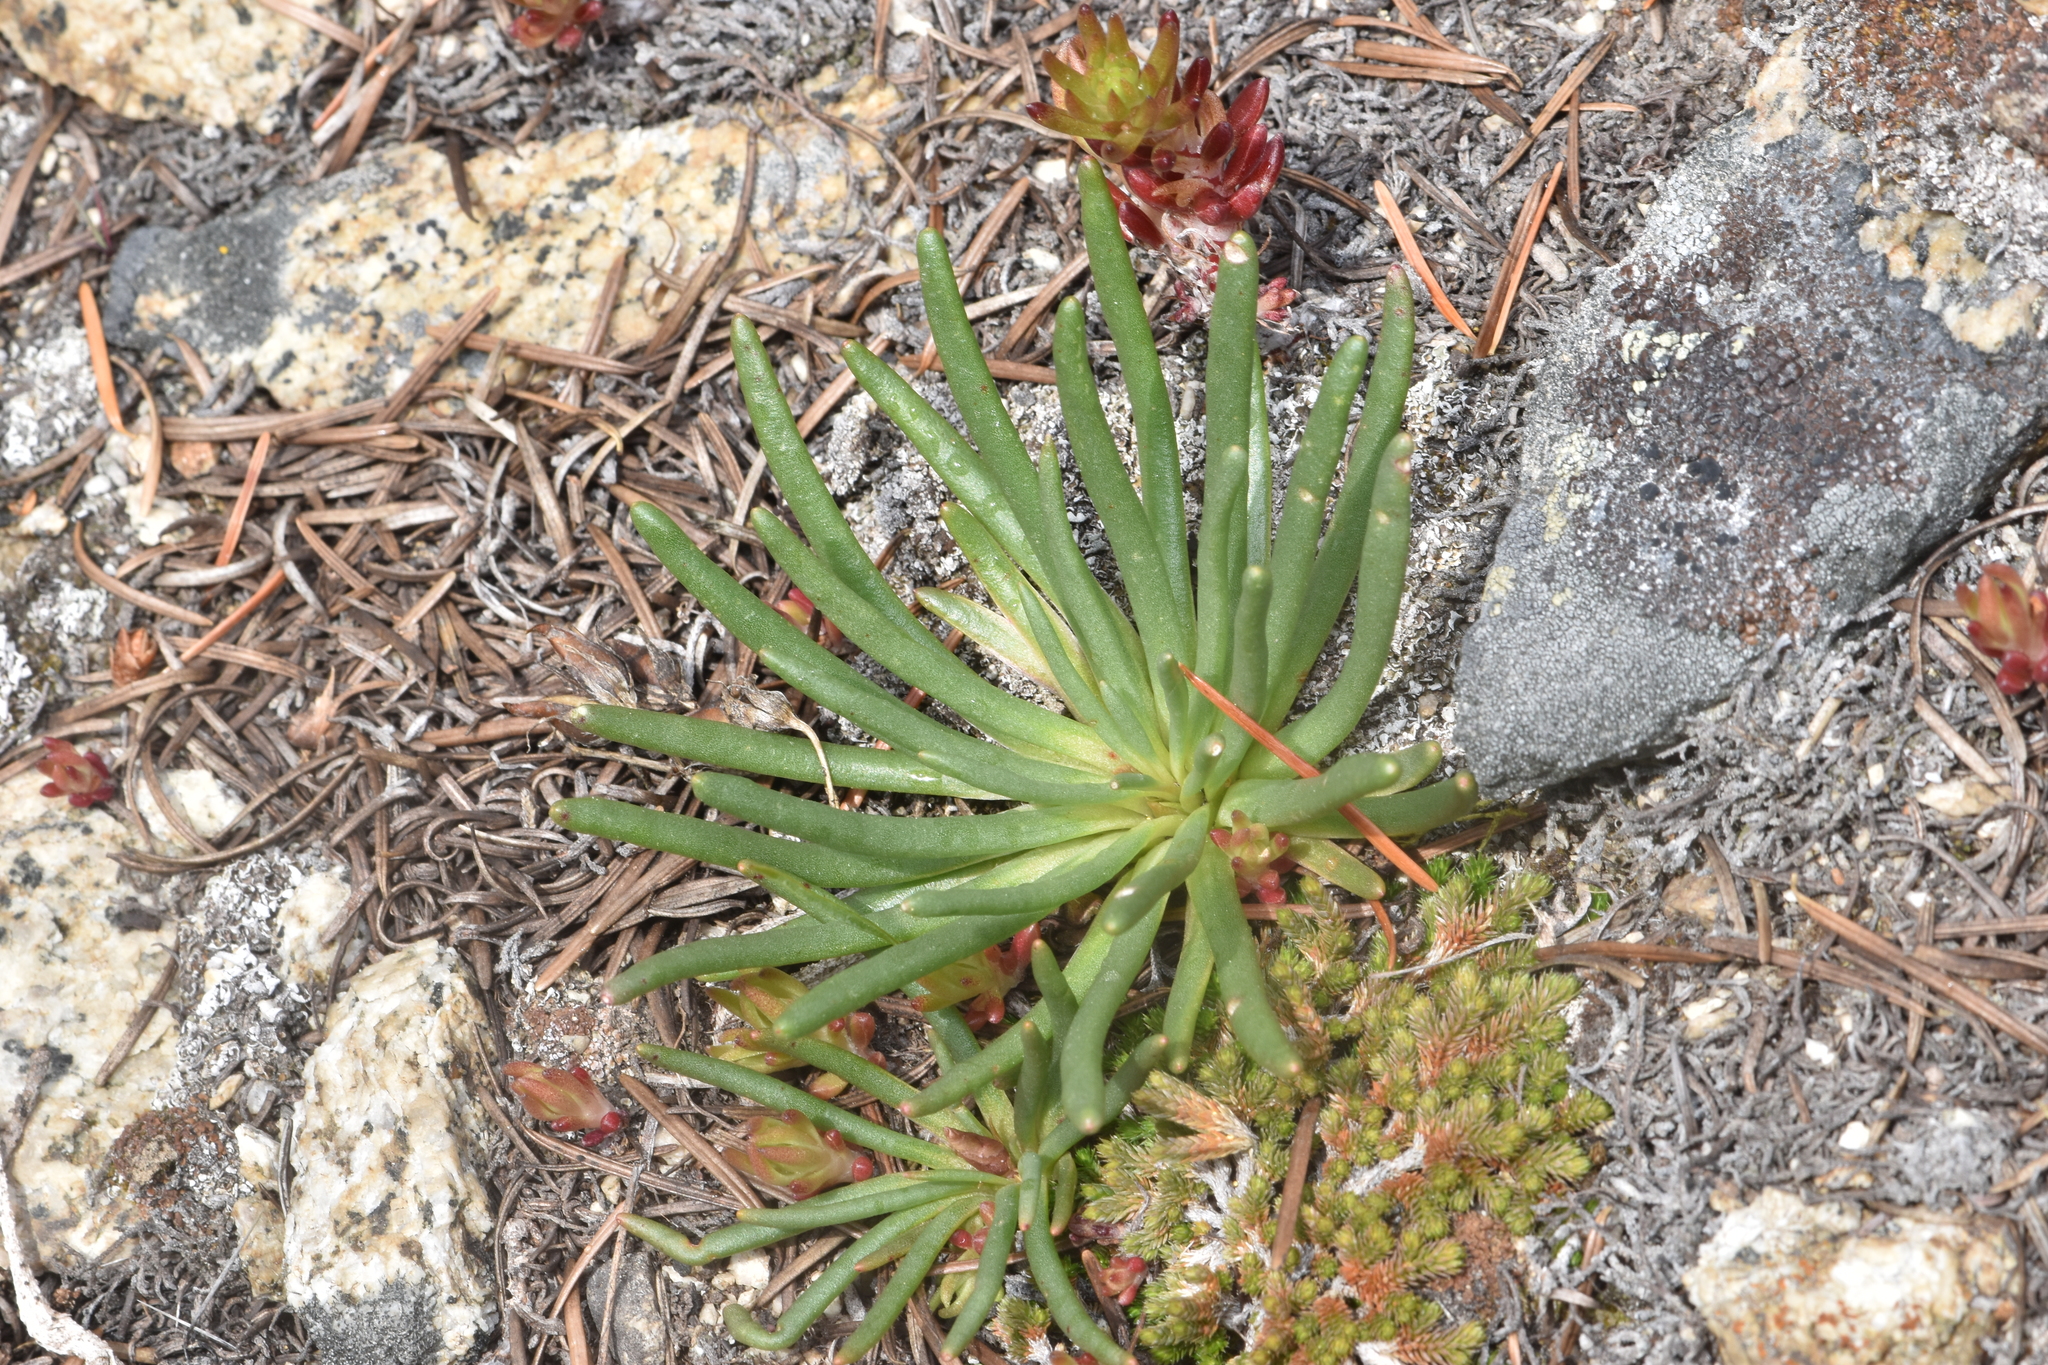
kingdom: Plantae
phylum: Tracheophyta
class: Magnoliopsida
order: Caryophyllales
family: Montiaceae
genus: Lewisia
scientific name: Lewisia rediviva
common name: Bitter-root
